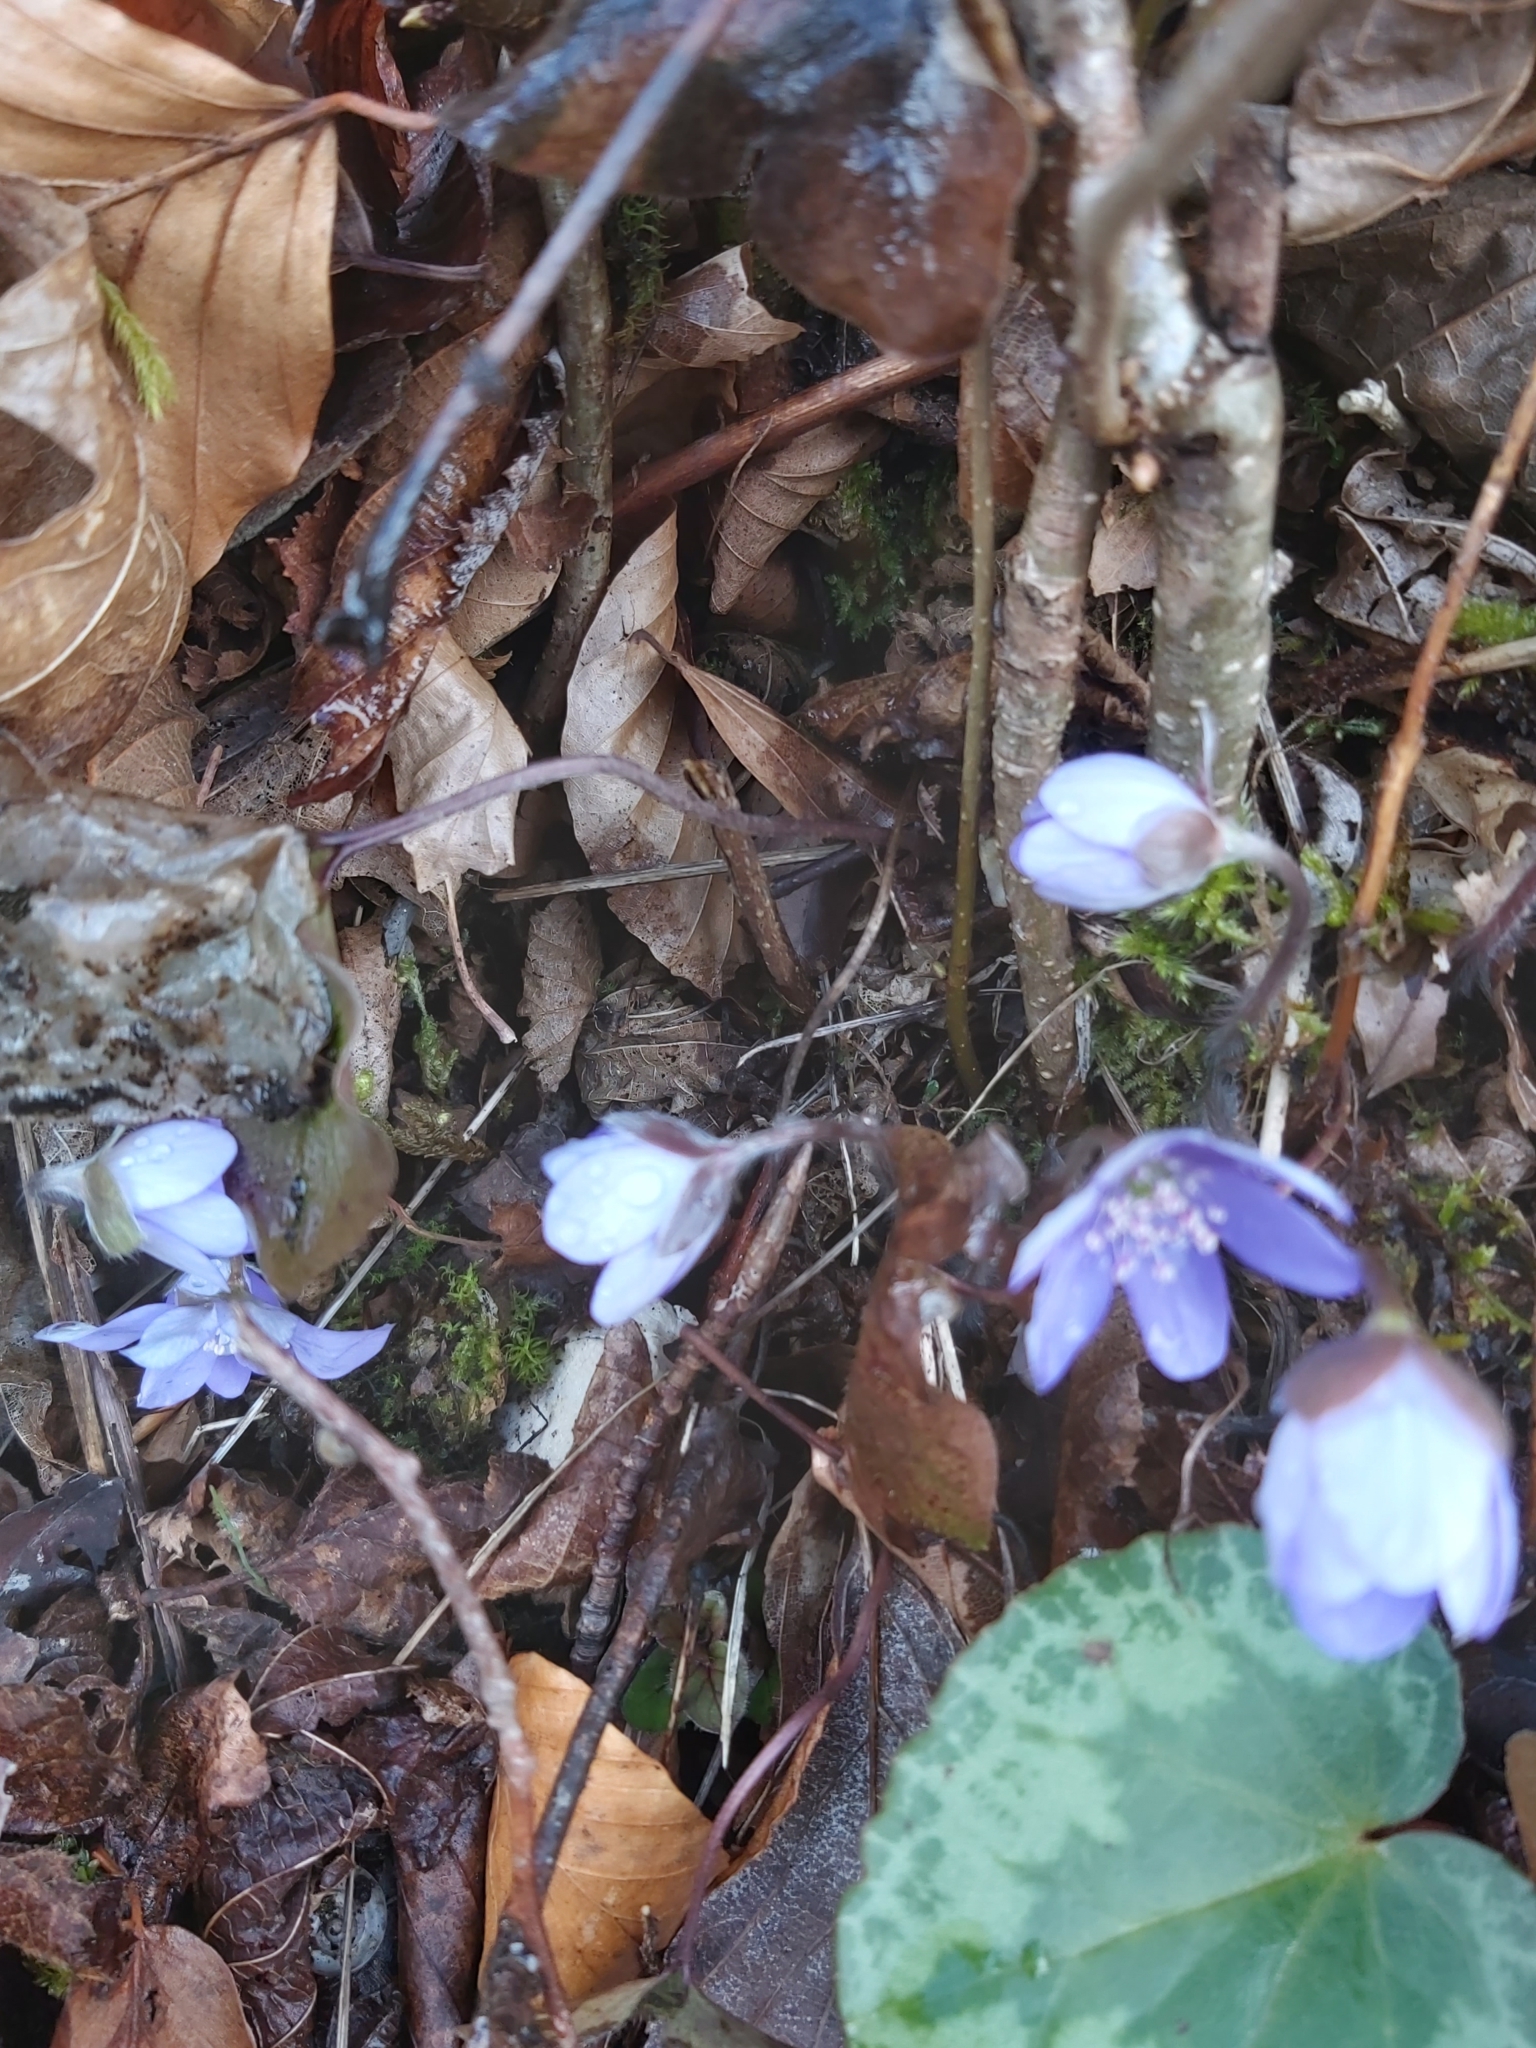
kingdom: Plantae
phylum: Tracheophyta
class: Magnoliopsida
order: Ranunculales
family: Ranunculaceae
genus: Hepatica
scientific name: Hepatica nobilis
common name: Liverleaf
